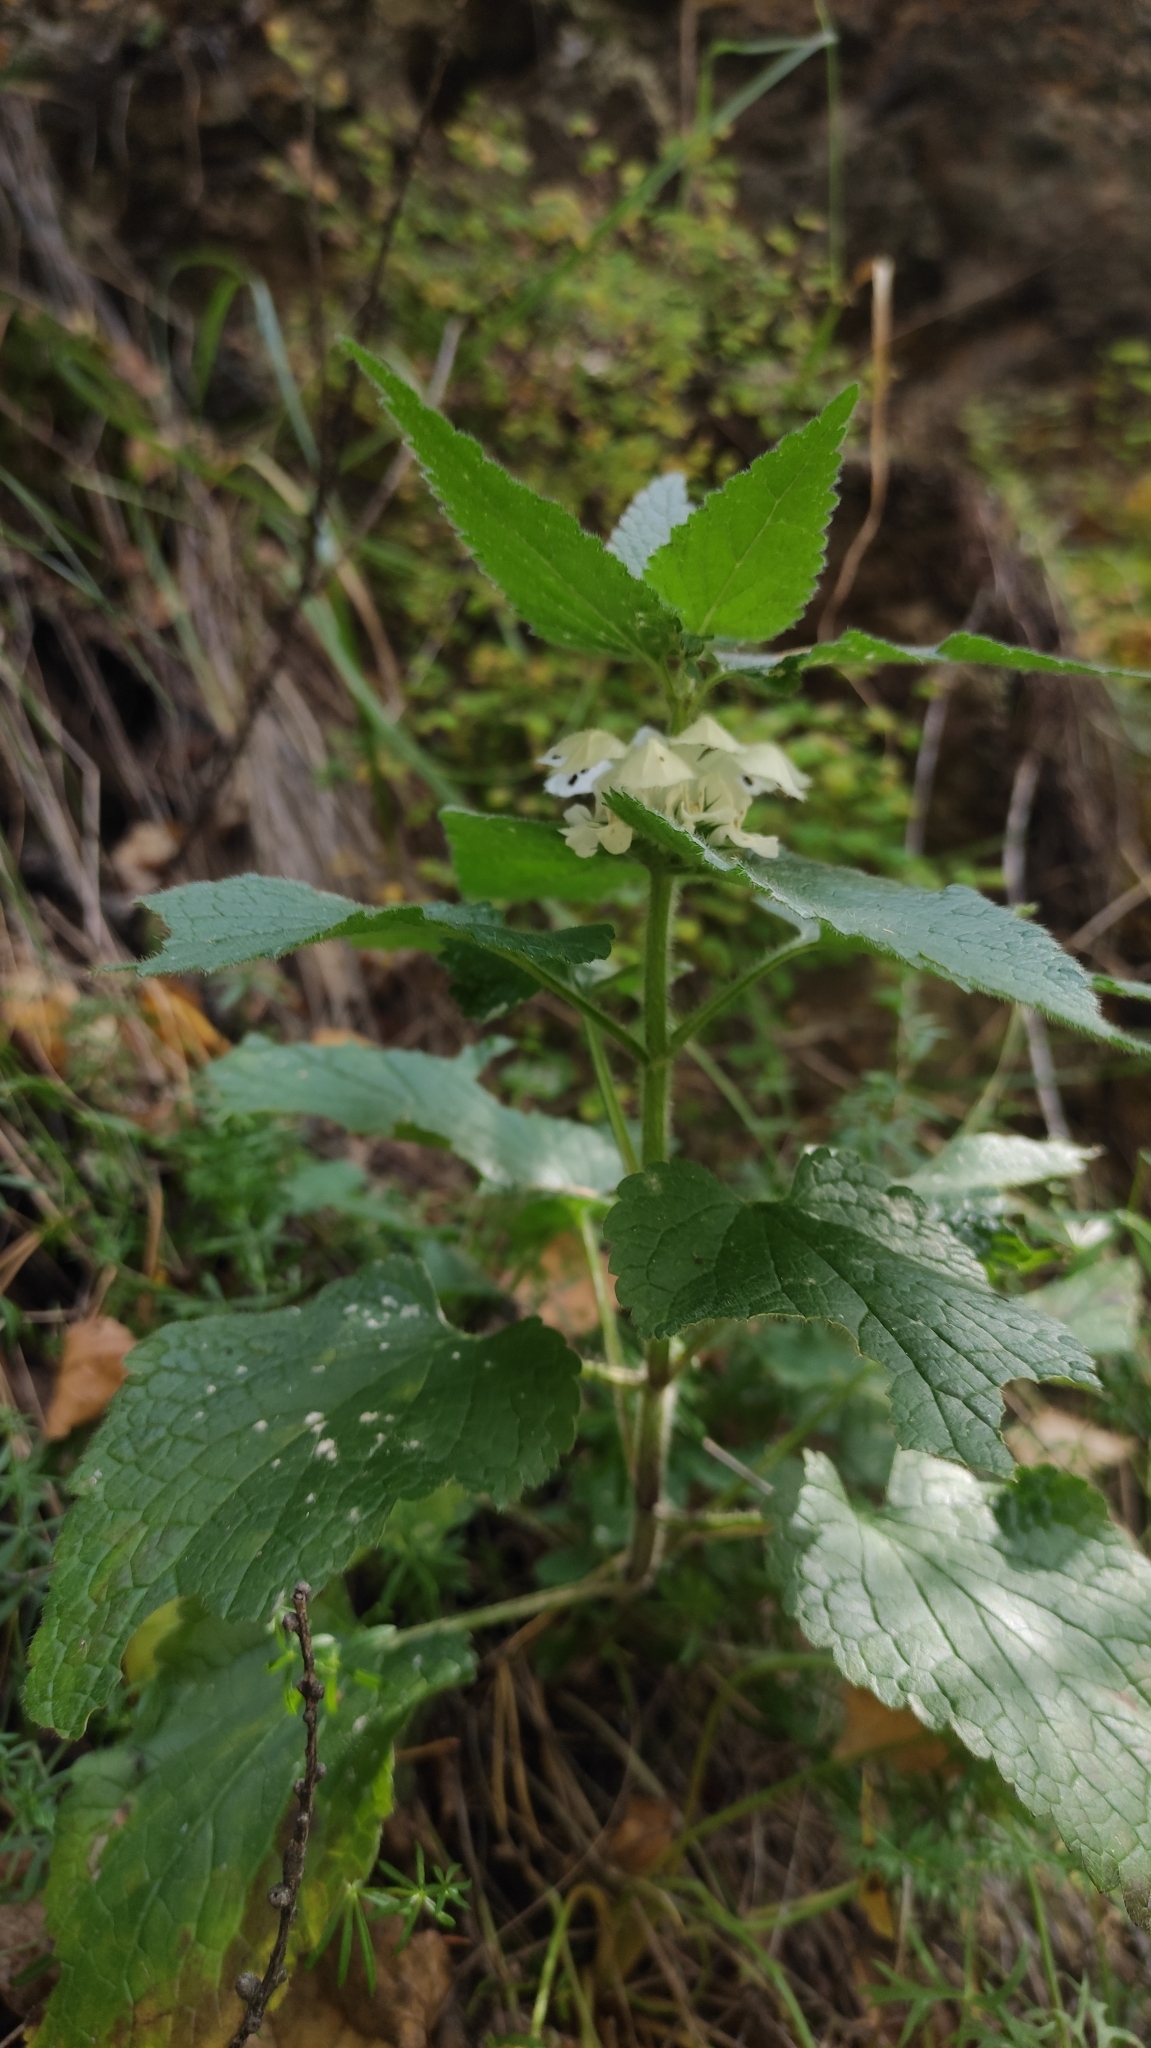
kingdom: Plantae
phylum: Tracheophyta
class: Magnoliopsida
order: Lamiales
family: Lamiaceae
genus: Lamium
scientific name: Lamium album
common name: White dead-nettle
